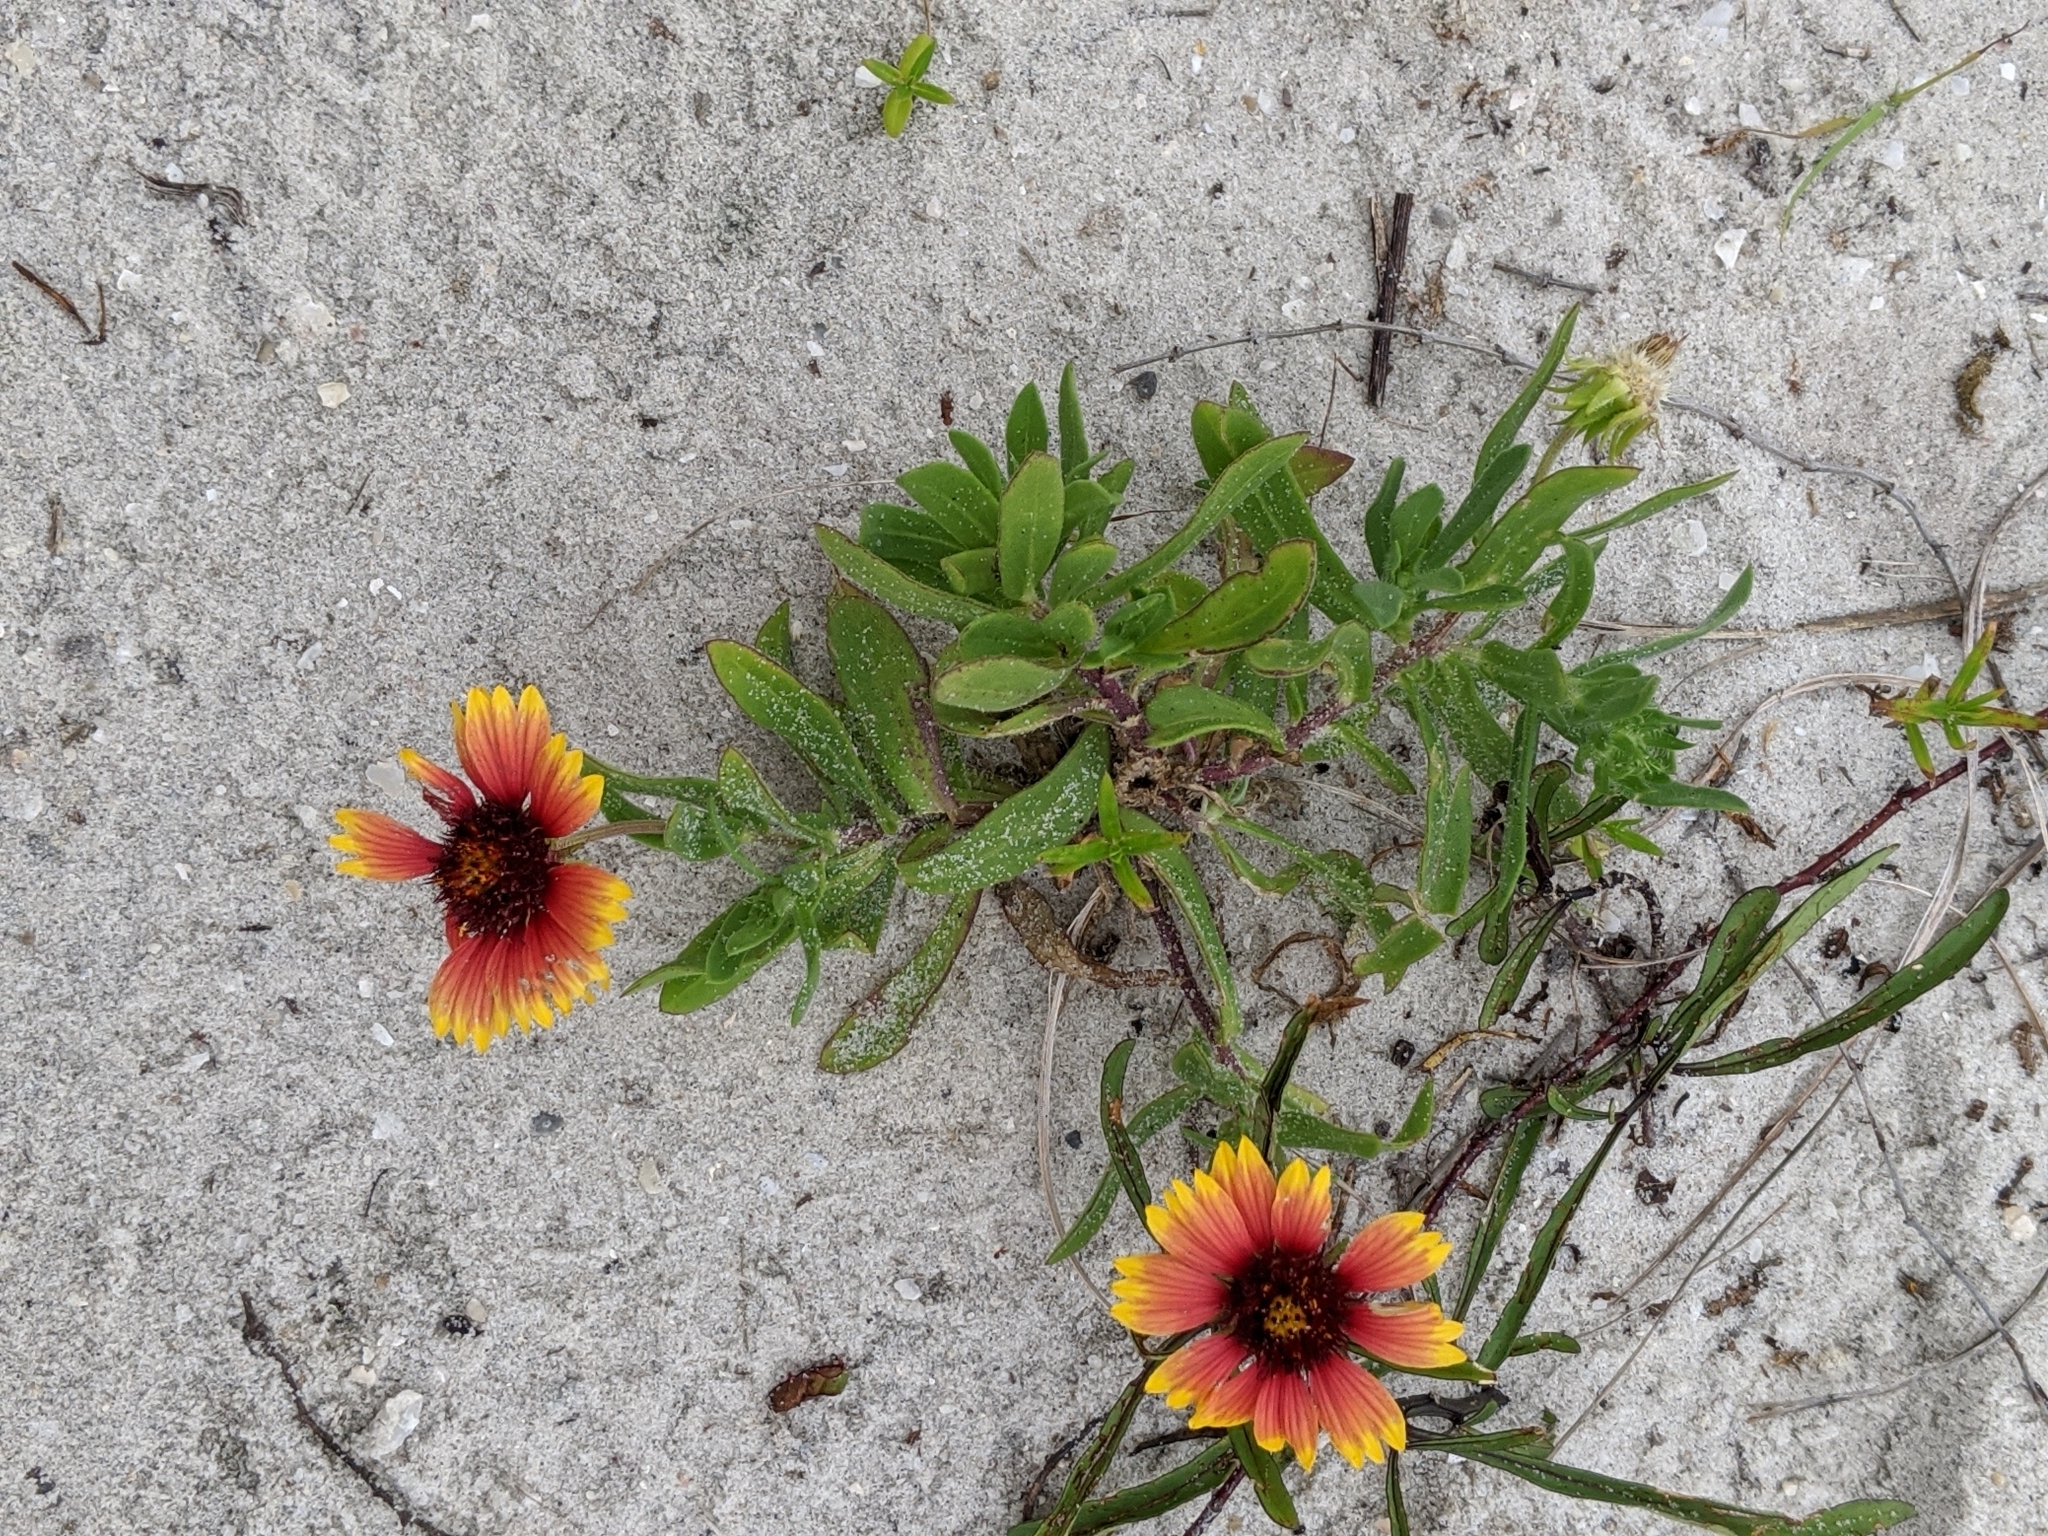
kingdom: Plantae
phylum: Tracheophyta
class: Magnoliopsida
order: Asterales
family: Asteraceae
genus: Gaillardia
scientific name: Gaillardia pulchella
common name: Firewheel
